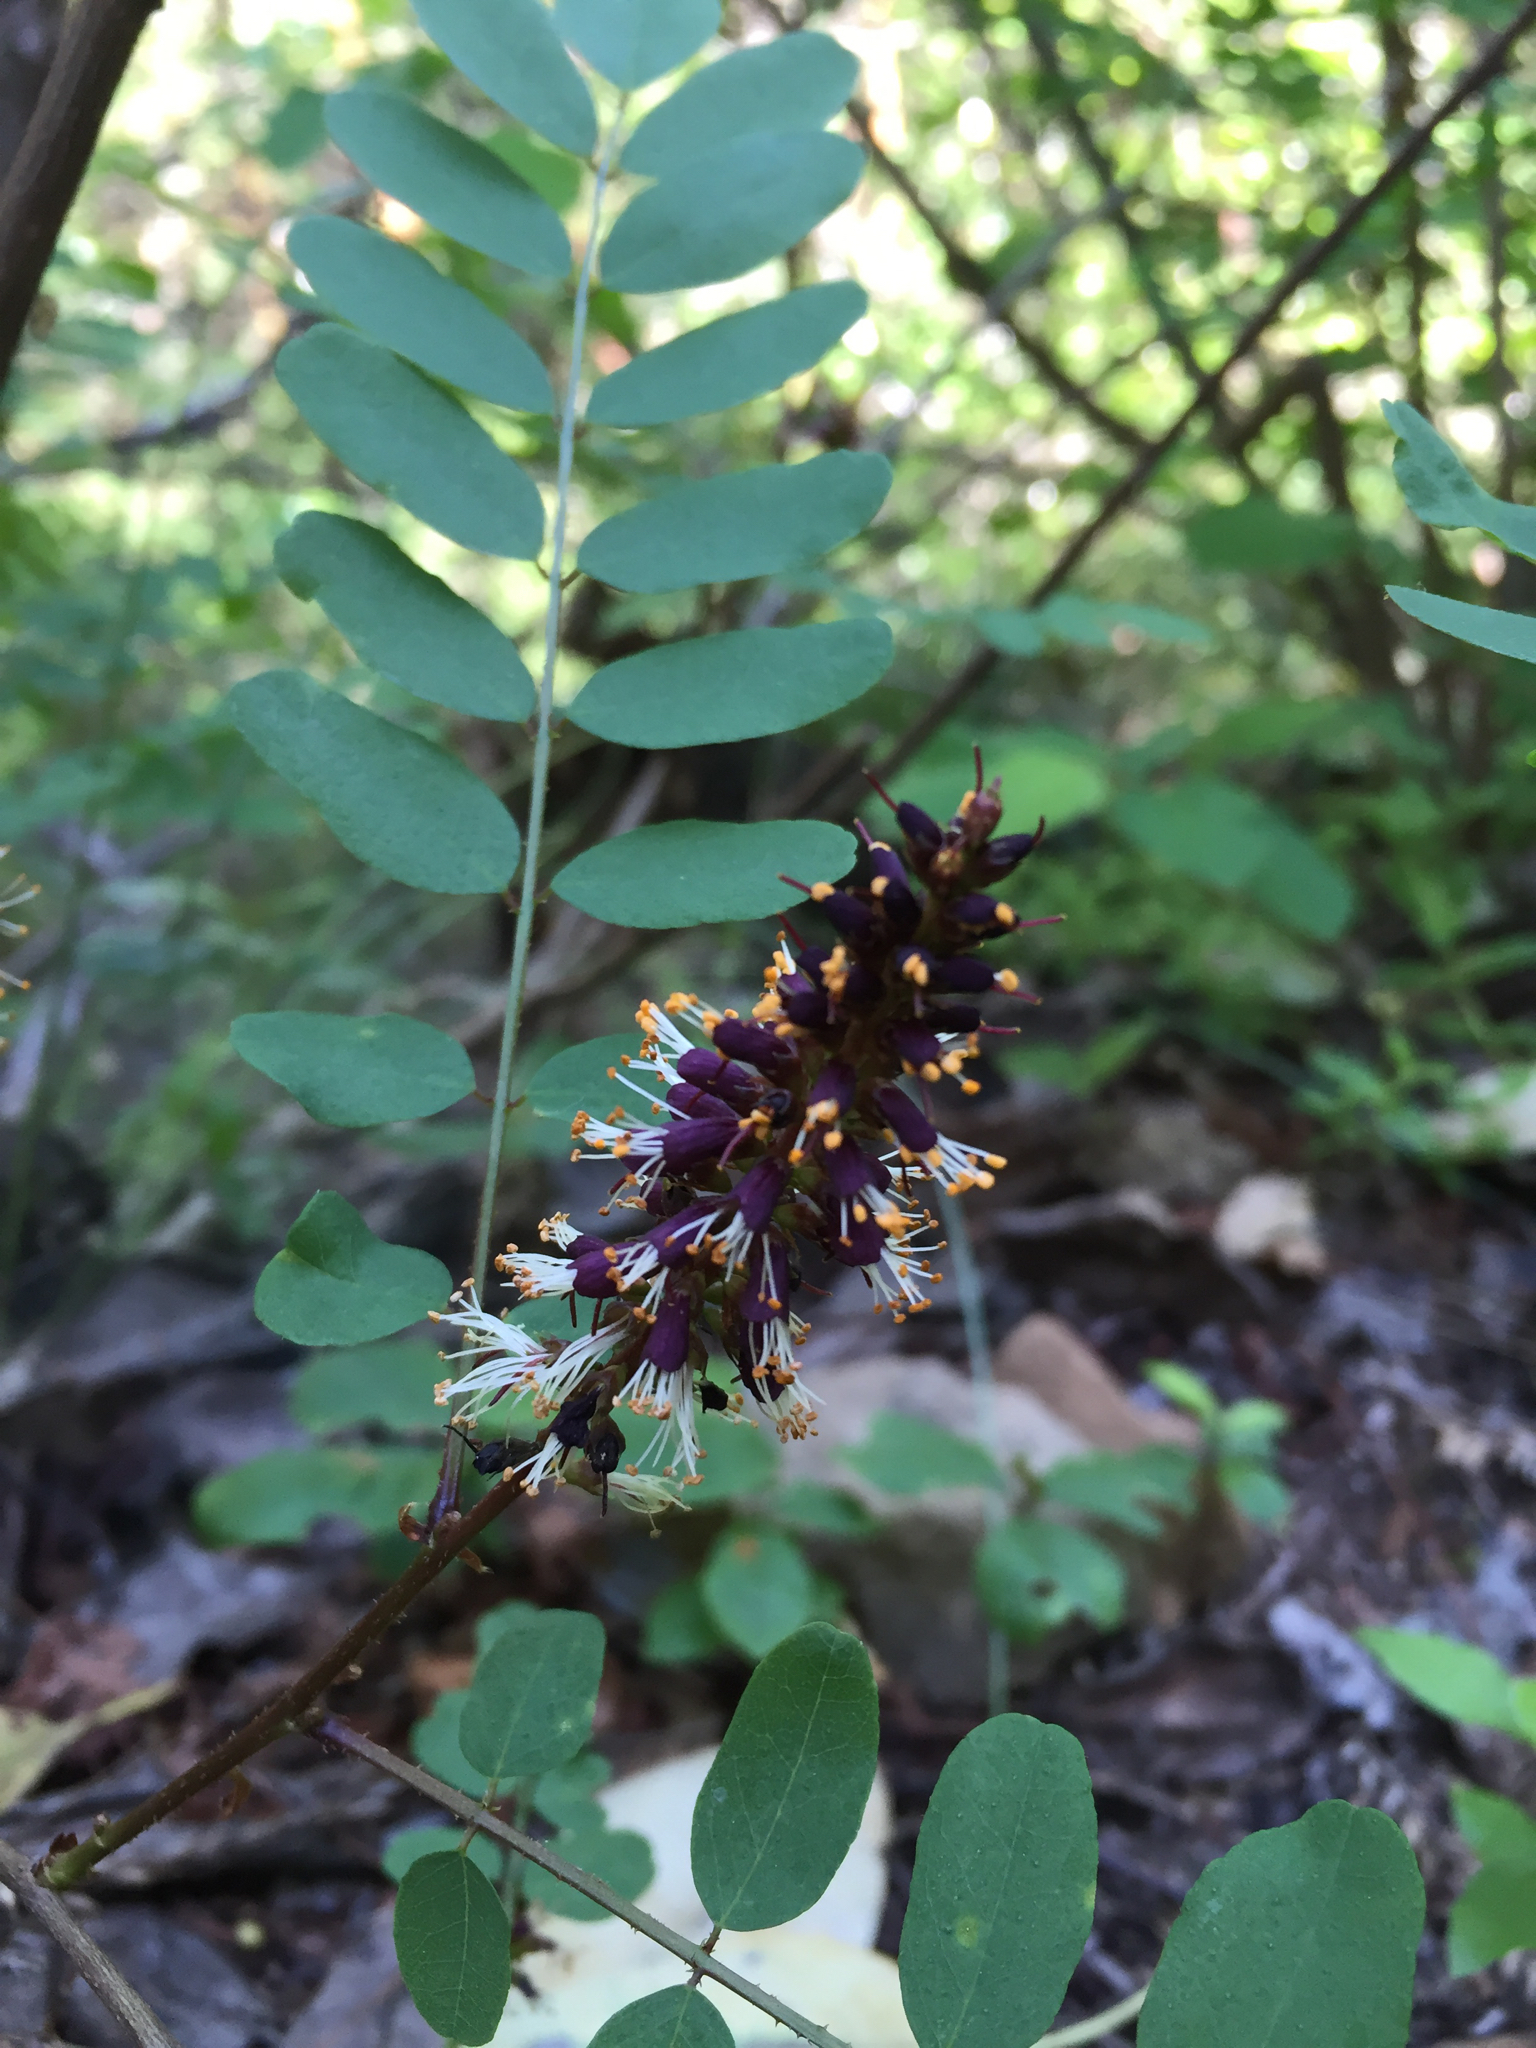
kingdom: Plantae
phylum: Tracheophyta
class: Magnoliopsida
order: Fabales
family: Fabaceae
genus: Amorpha
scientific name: Amorpha californica
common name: California indigobush
